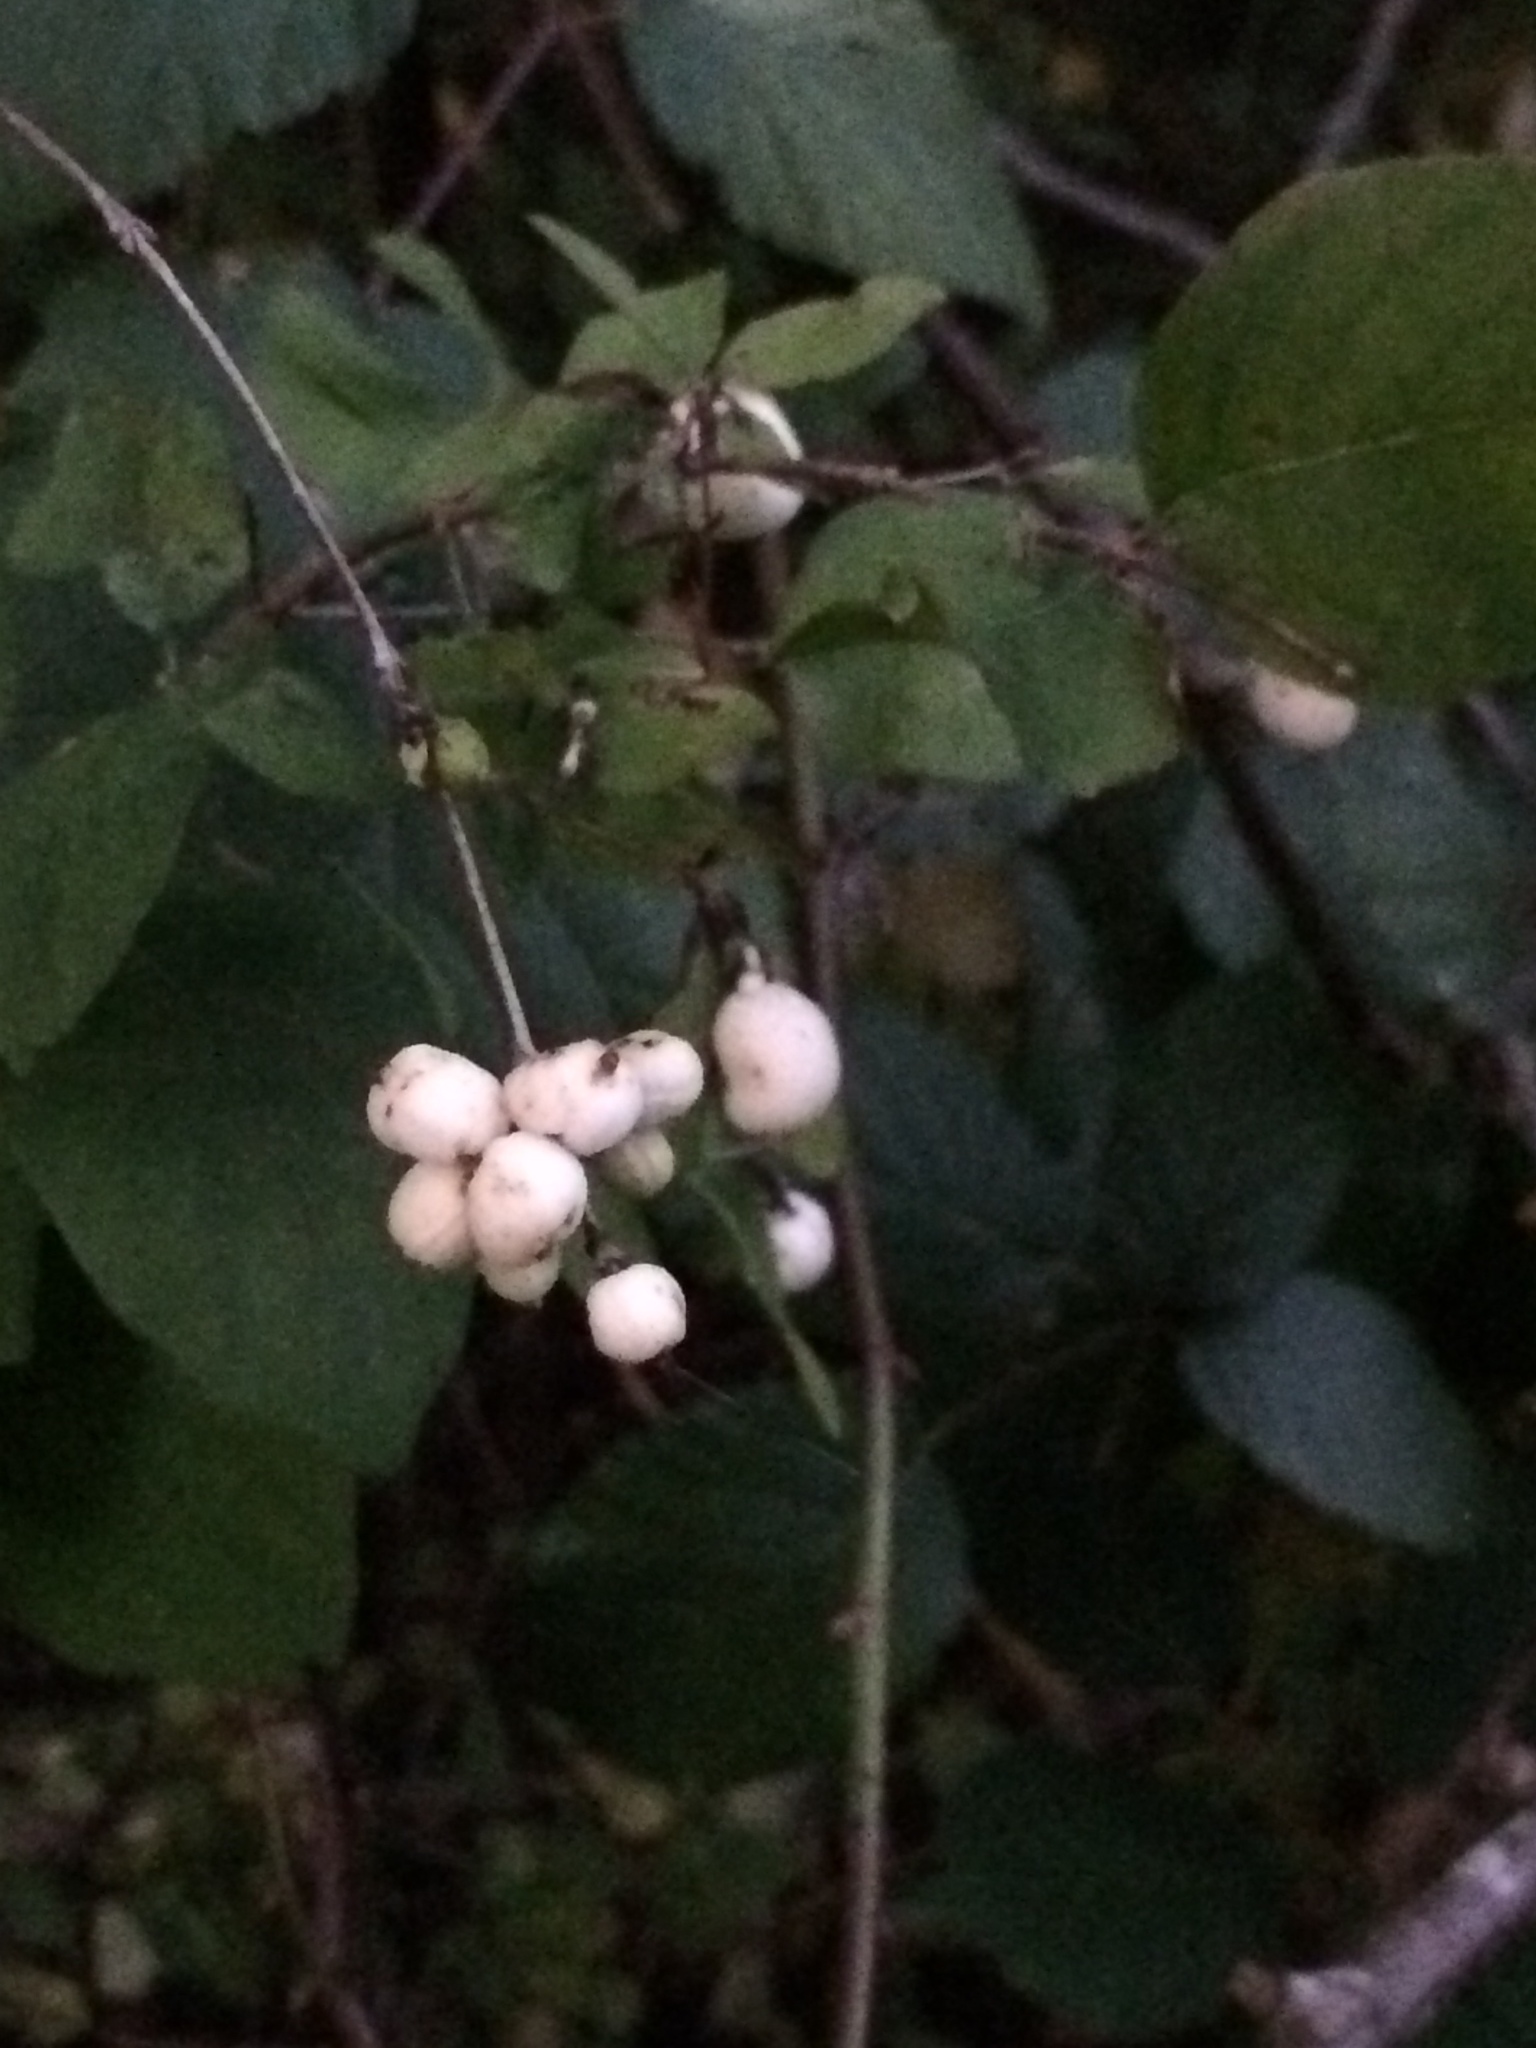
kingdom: Plantae
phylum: Tracheophyta
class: Magnoliopsida
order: Dipsacales
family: Caprifoliaceae
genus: Symphoricarpos
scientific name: Symphoricarpos albus
